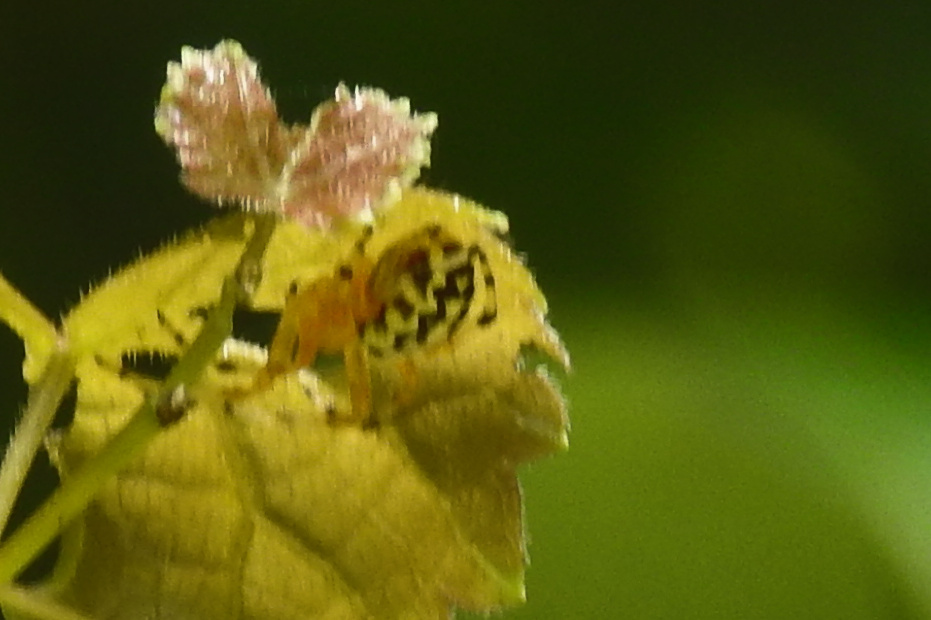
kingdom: Animalia
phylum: Arthropoda
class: Arachnida
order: Araneae
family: Araneidae
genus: Araneus
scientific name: Araneus marmoreus
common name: Marbled orbweaver
